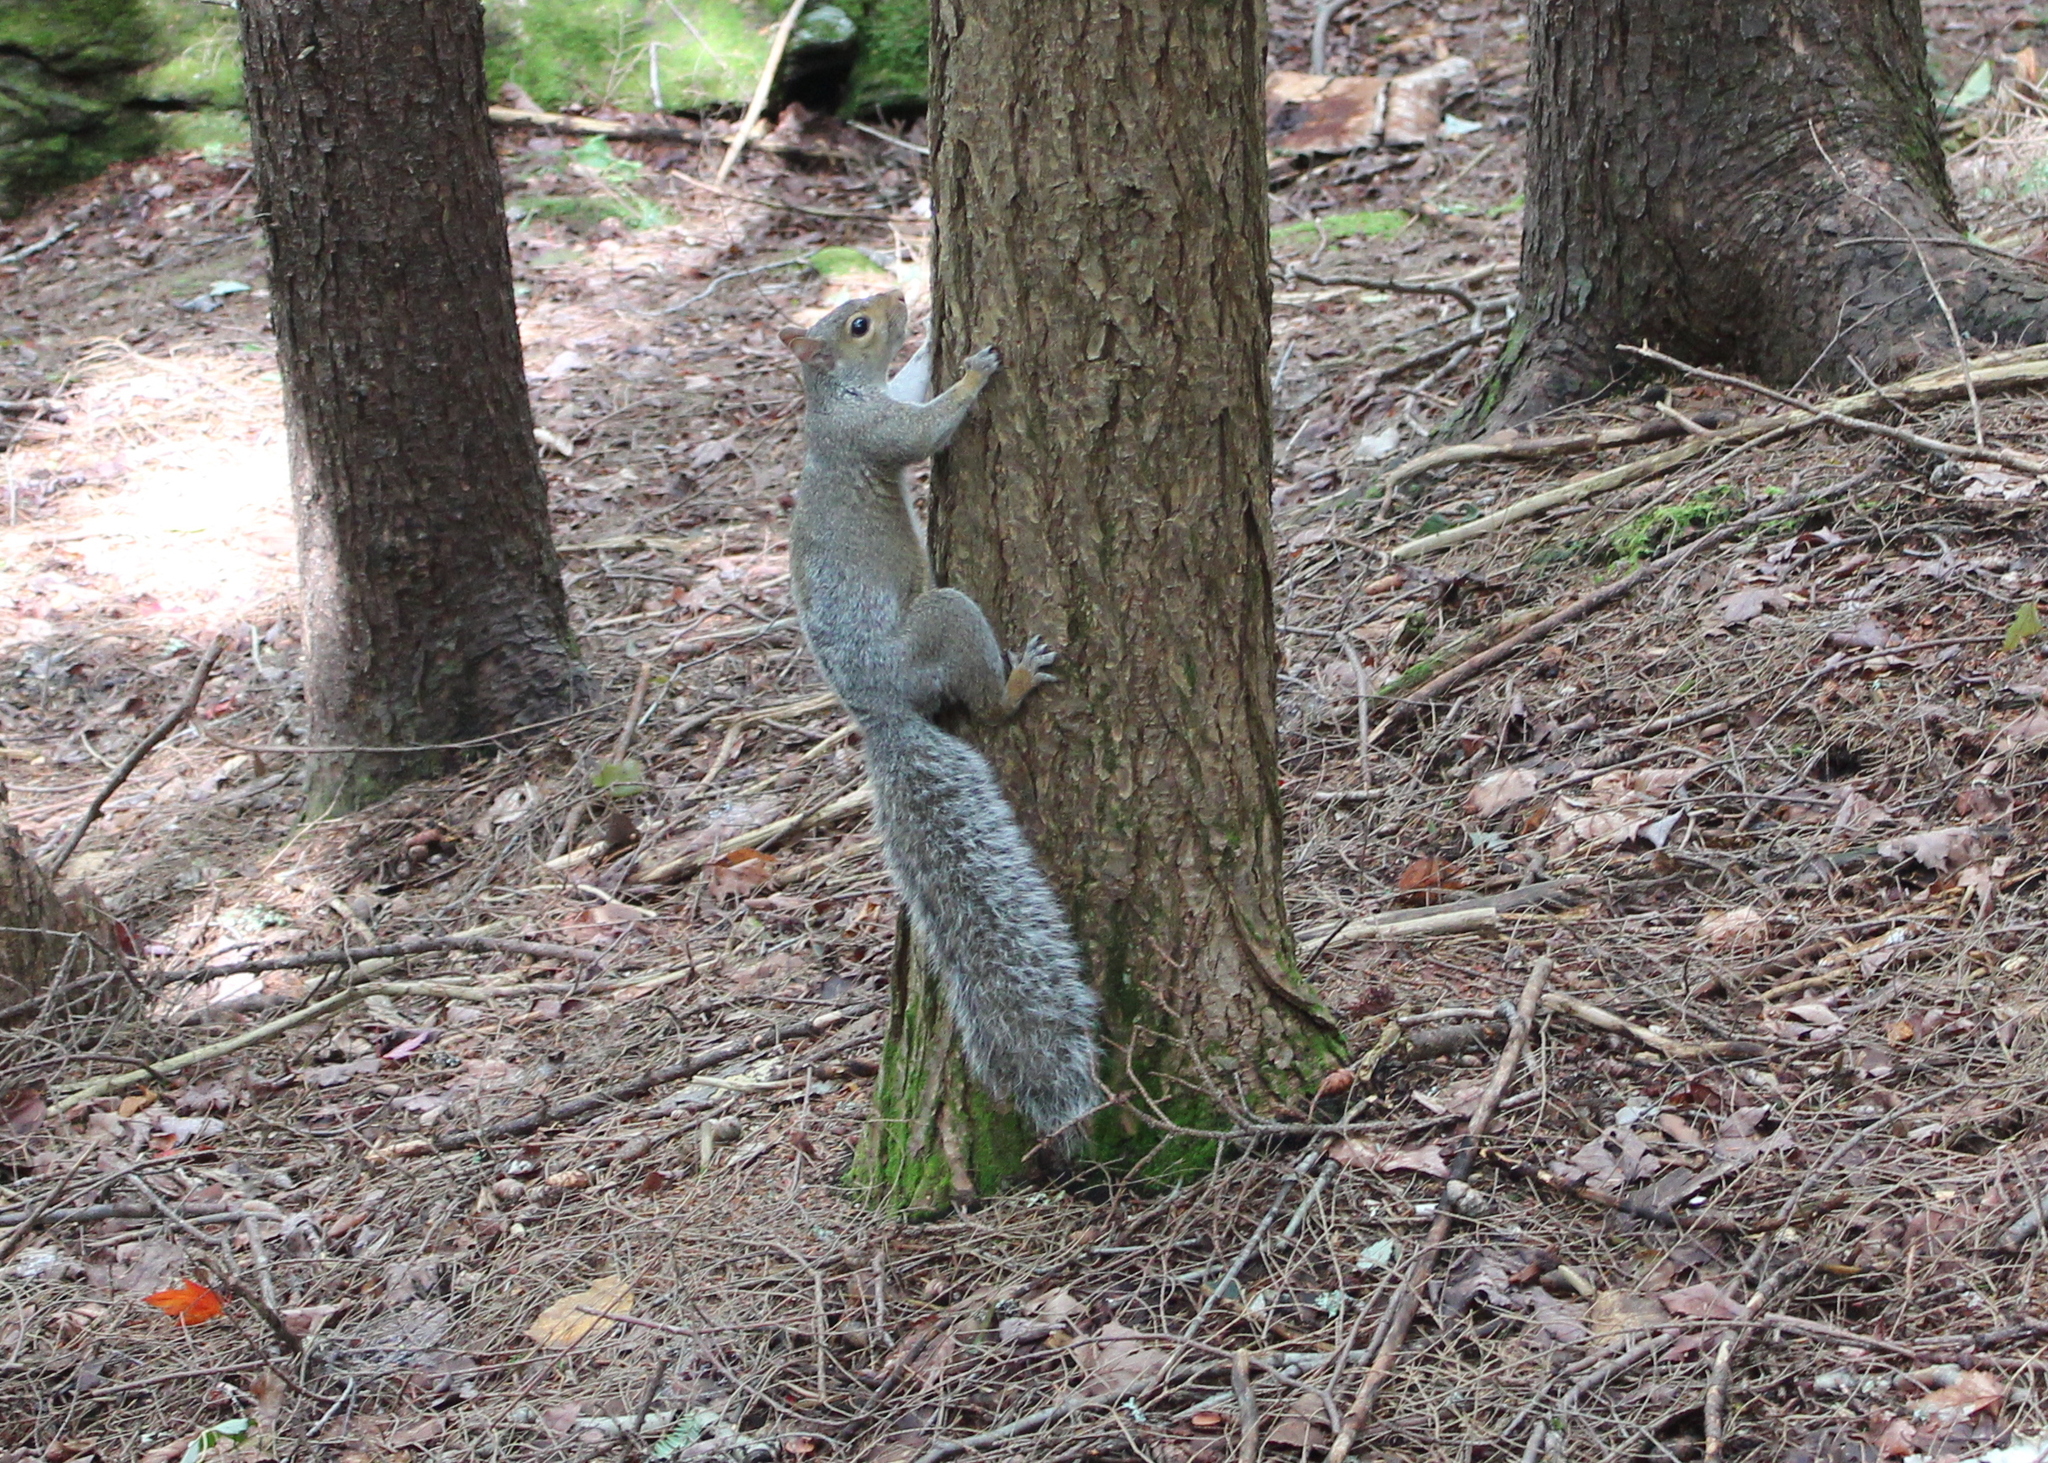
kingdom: Animalia
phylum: Chordata
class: Mammalia
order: Rodentia
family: Sciuridae
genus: Sciurus
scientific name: Sciurus carolinensis
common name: Eastern gray squirrel
